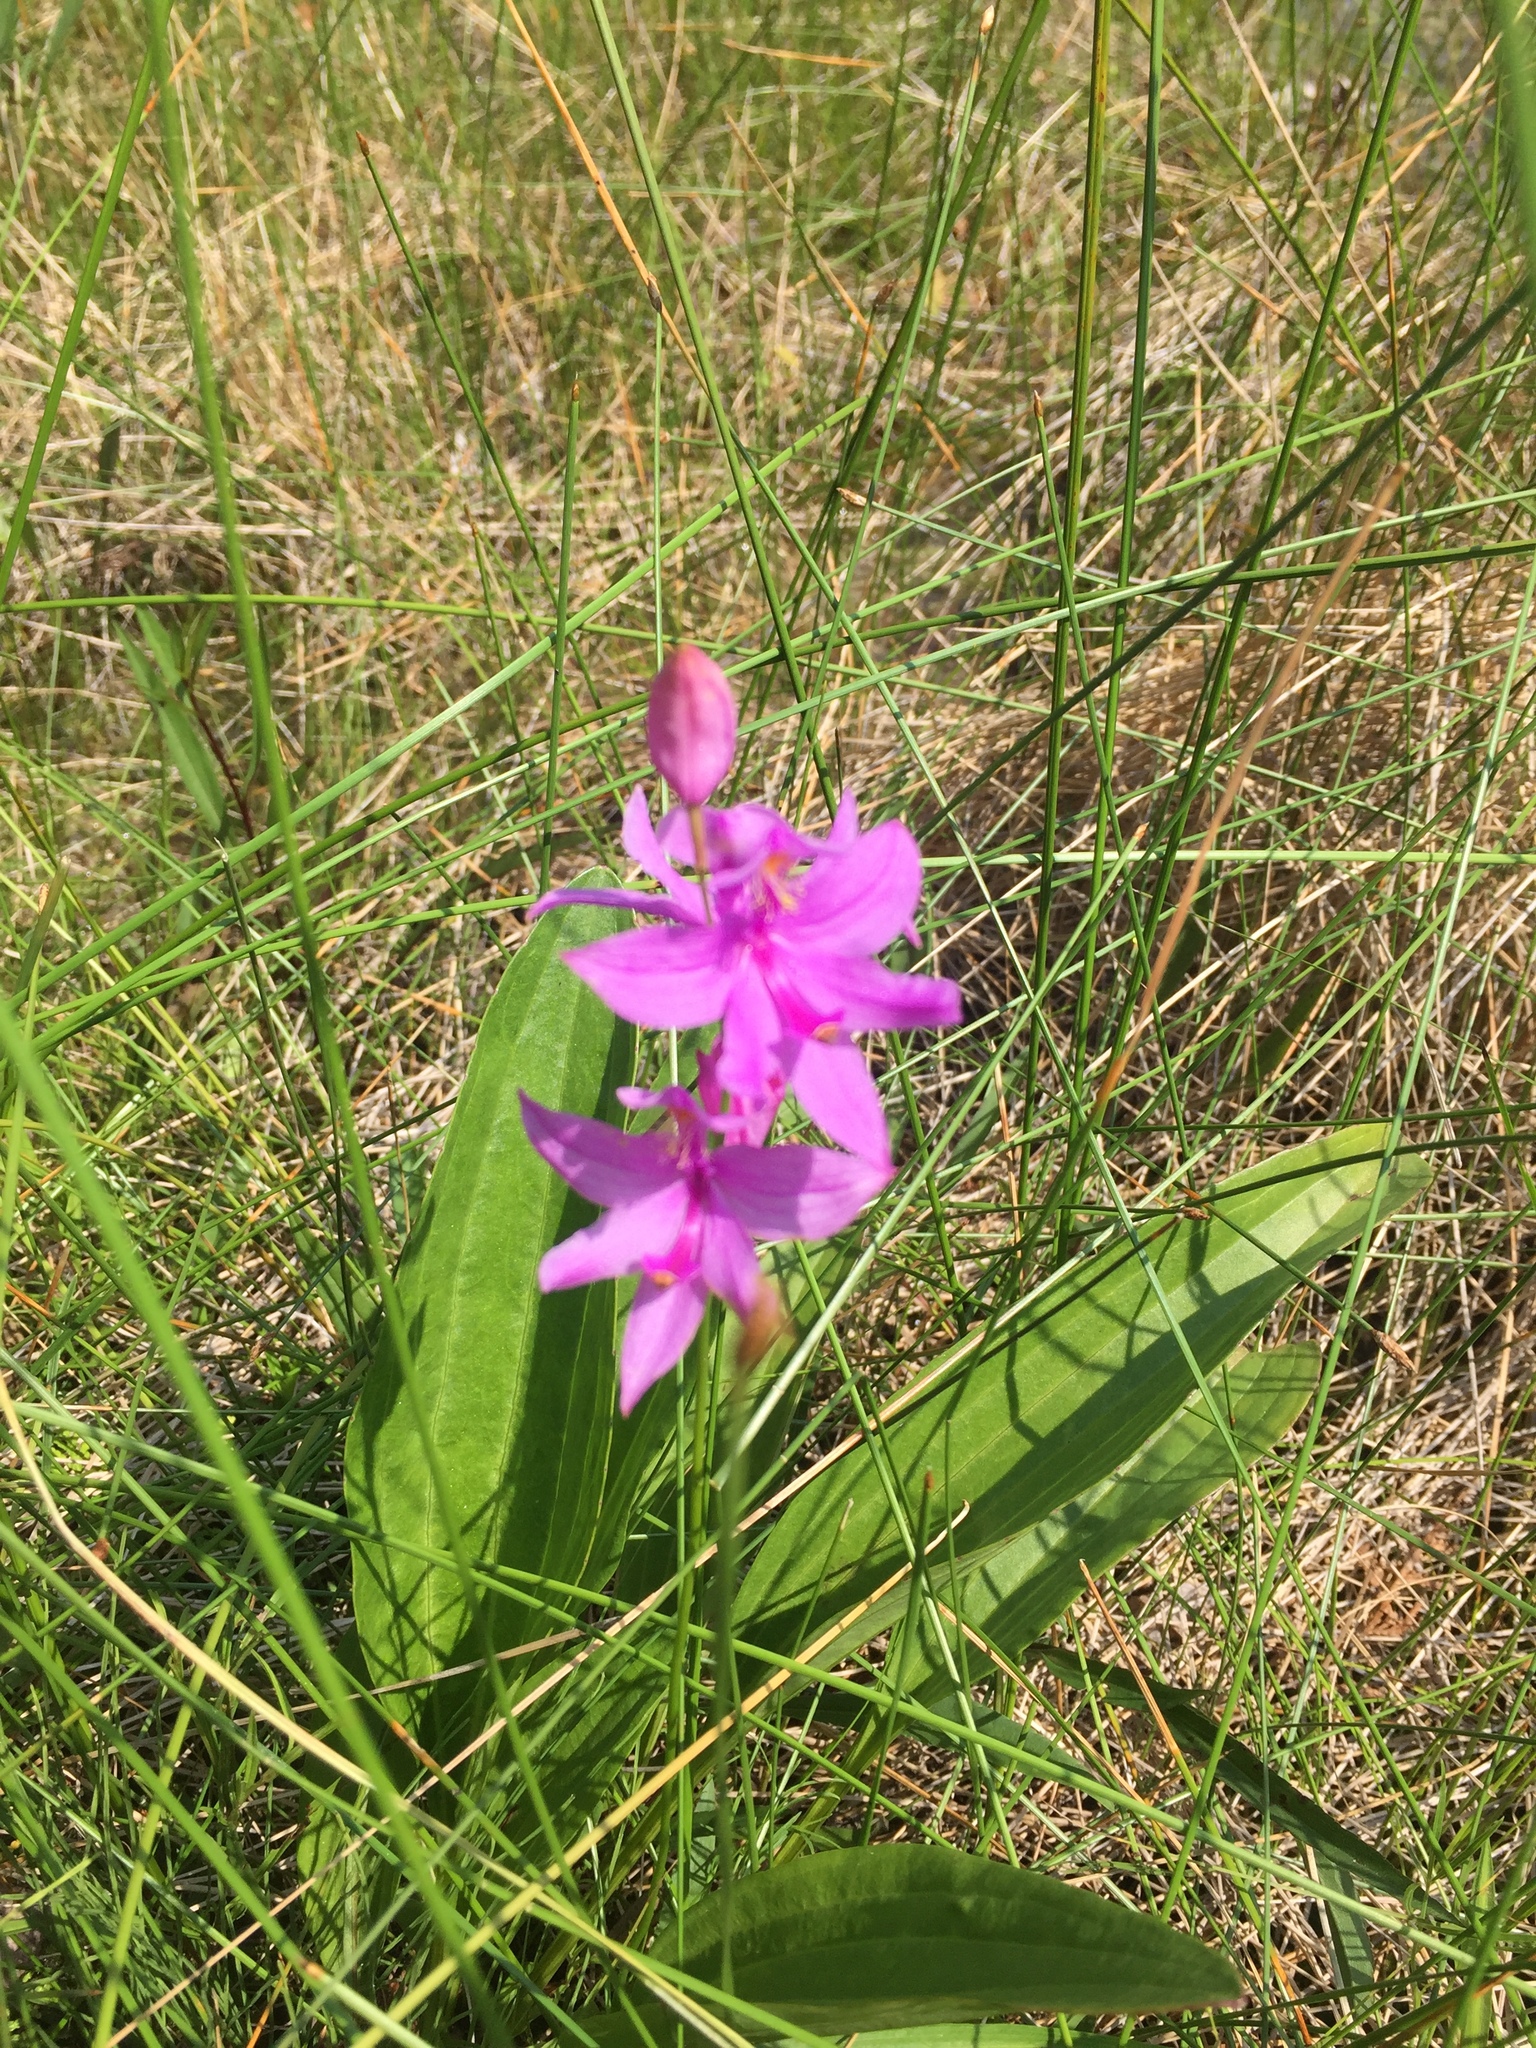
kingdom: Plantae
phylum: Tracheophyta
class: Liliopsida
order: Asparagales
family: Orchidaceae
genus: Calopogon
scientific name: Calopogon tuberosus
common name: Grass-pink
